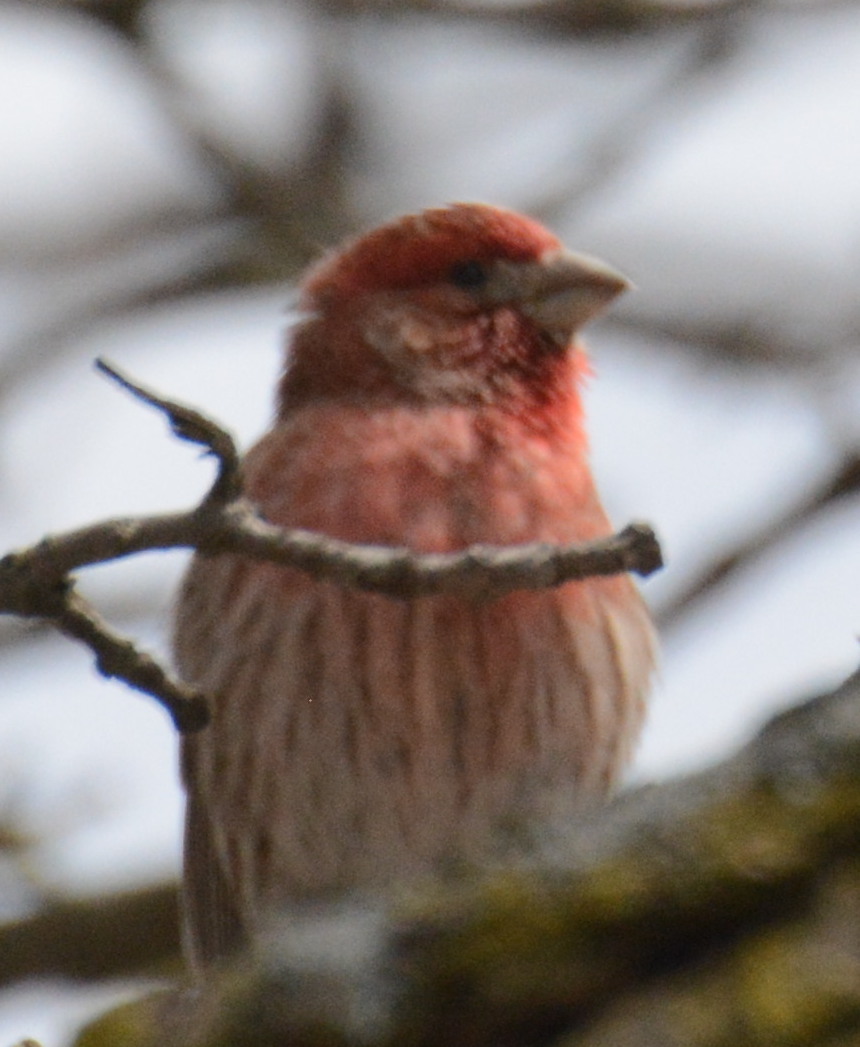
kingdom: Animalia
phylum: Chordata
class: Aves
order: Passeriformes
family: Fringillidae
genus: Haemorhous
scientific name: Haemorhous mexicanus
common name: House finch
